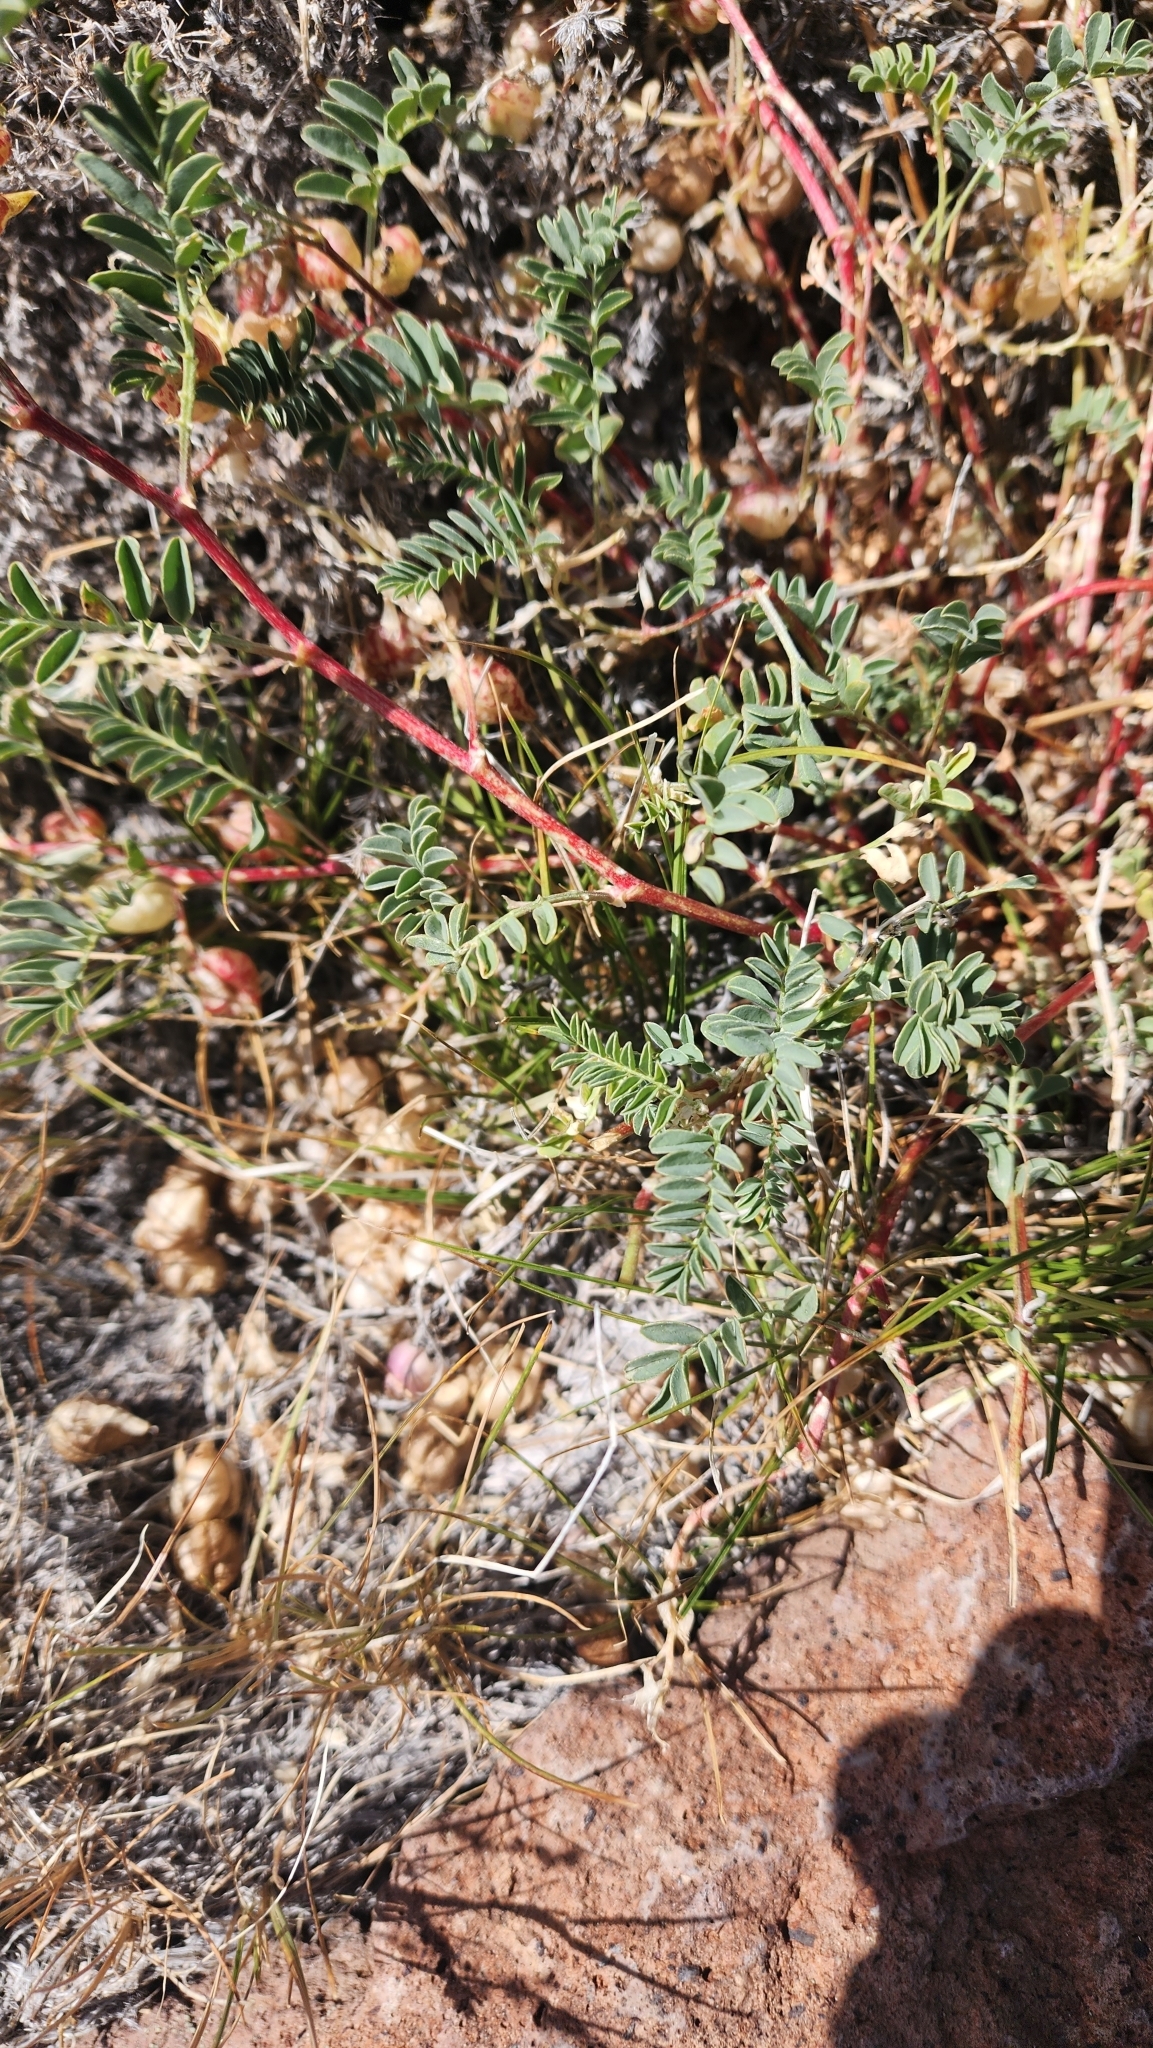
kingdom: Plantae
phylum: Tracheophyta
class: Magnoliopsida
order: Fabales
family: Fabaceae
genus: Astragalus
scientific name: Astragalus lentiginosus
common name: Freckled milkvetch
